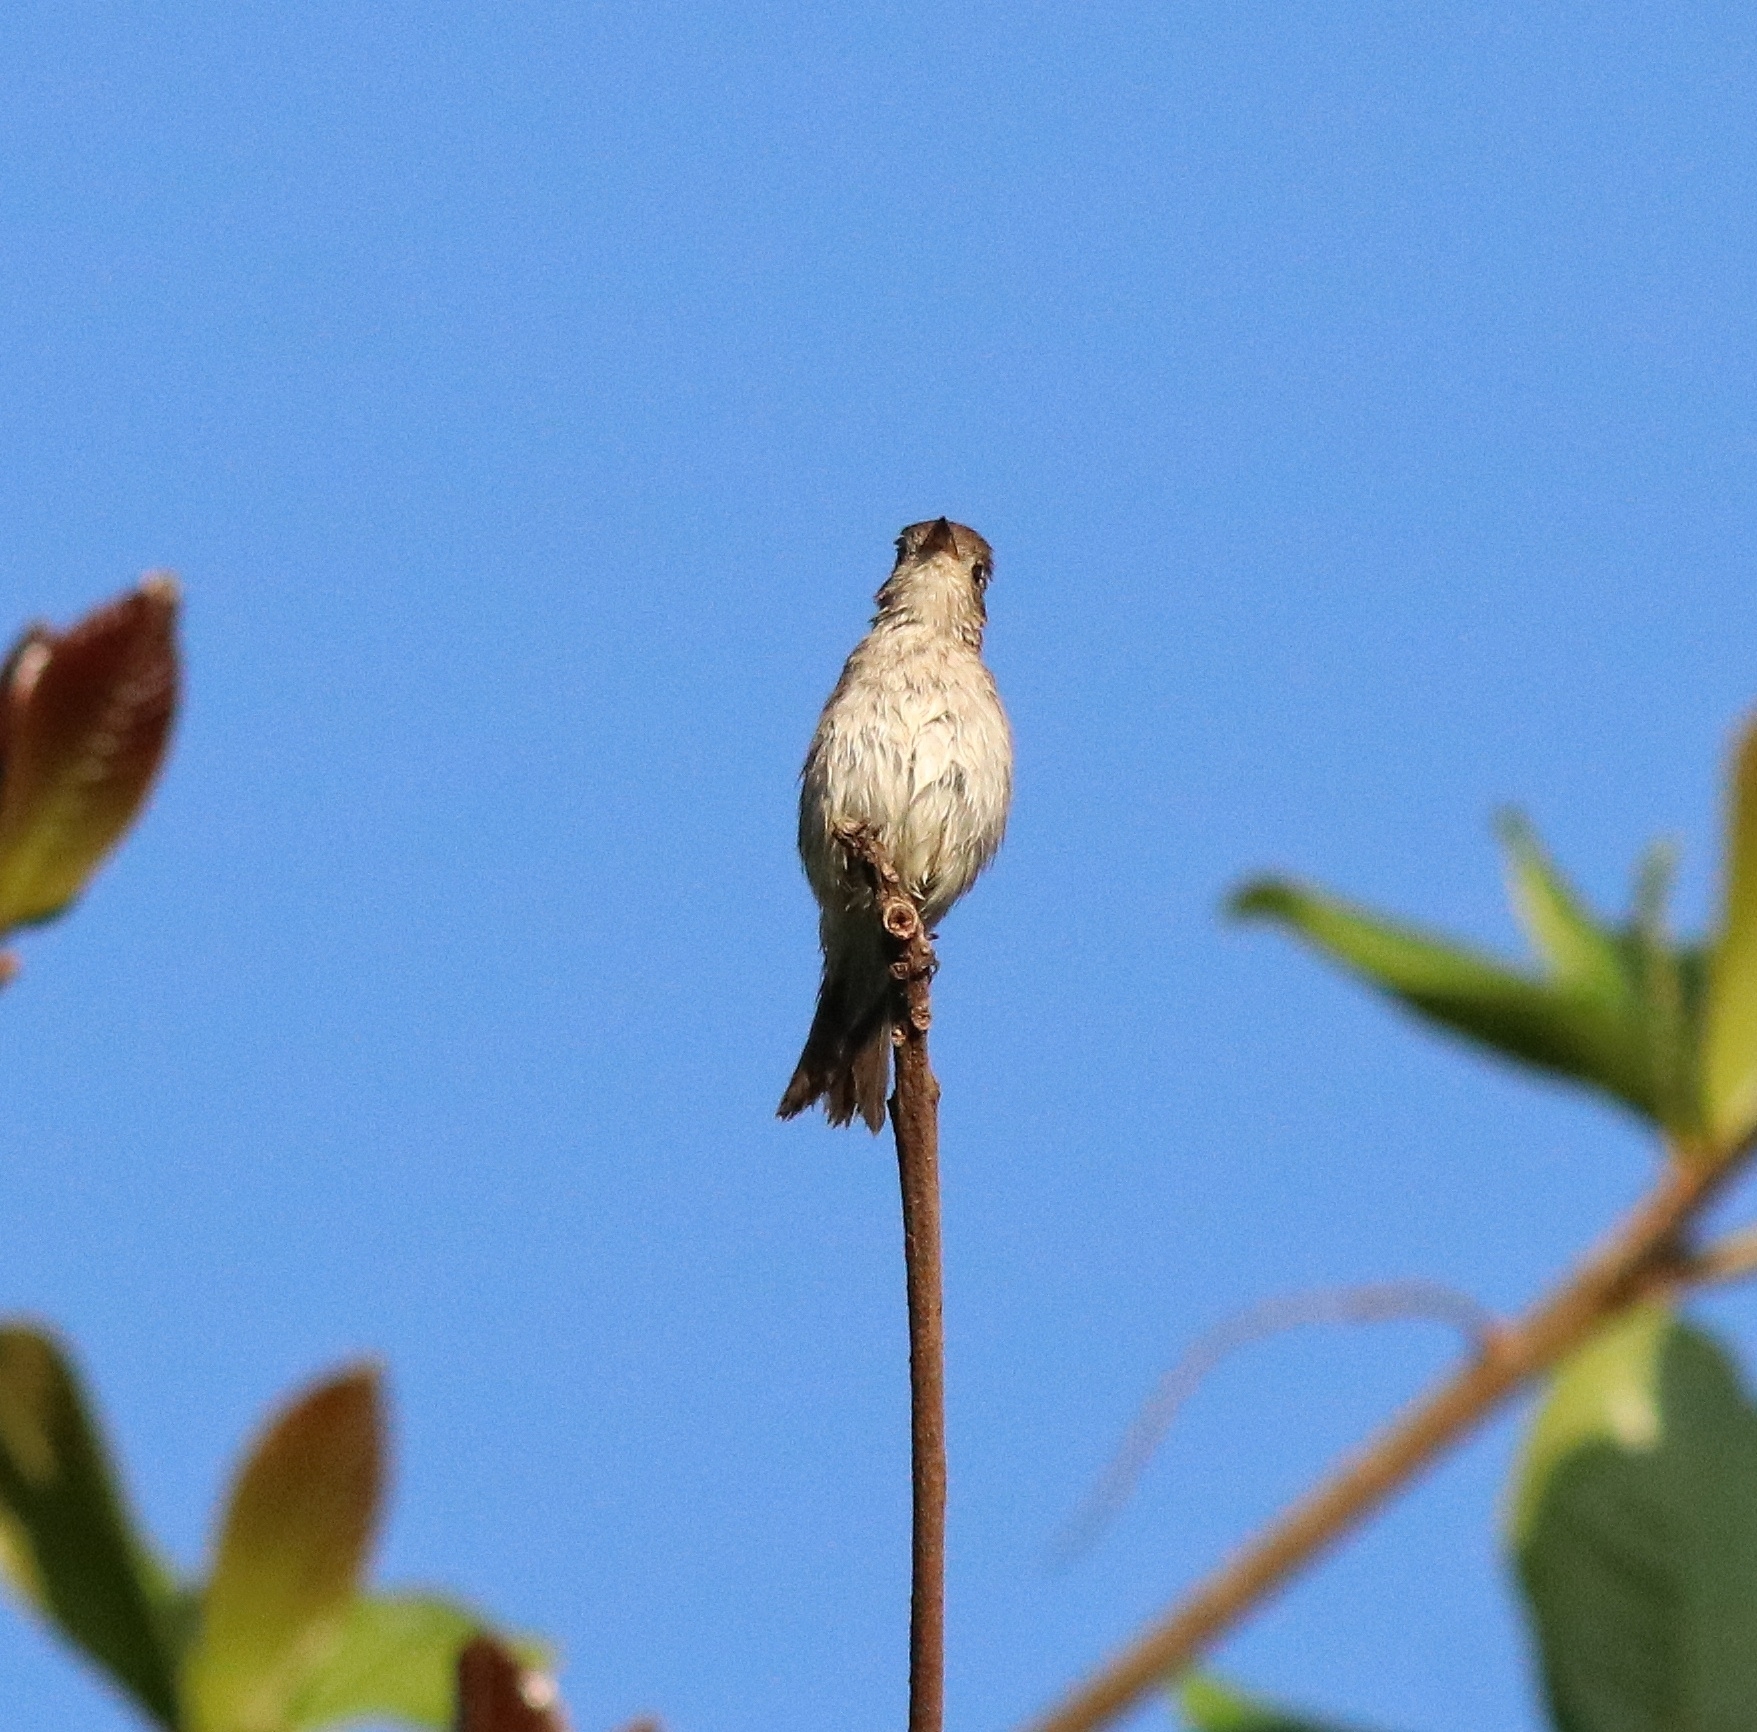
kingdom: Animalia
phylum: Chordata
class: Aves
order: Passeriformes
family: Muscicapidae
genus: Muscicapa
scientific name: Muscicapa latirostris
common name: Asian brown flycatcher
